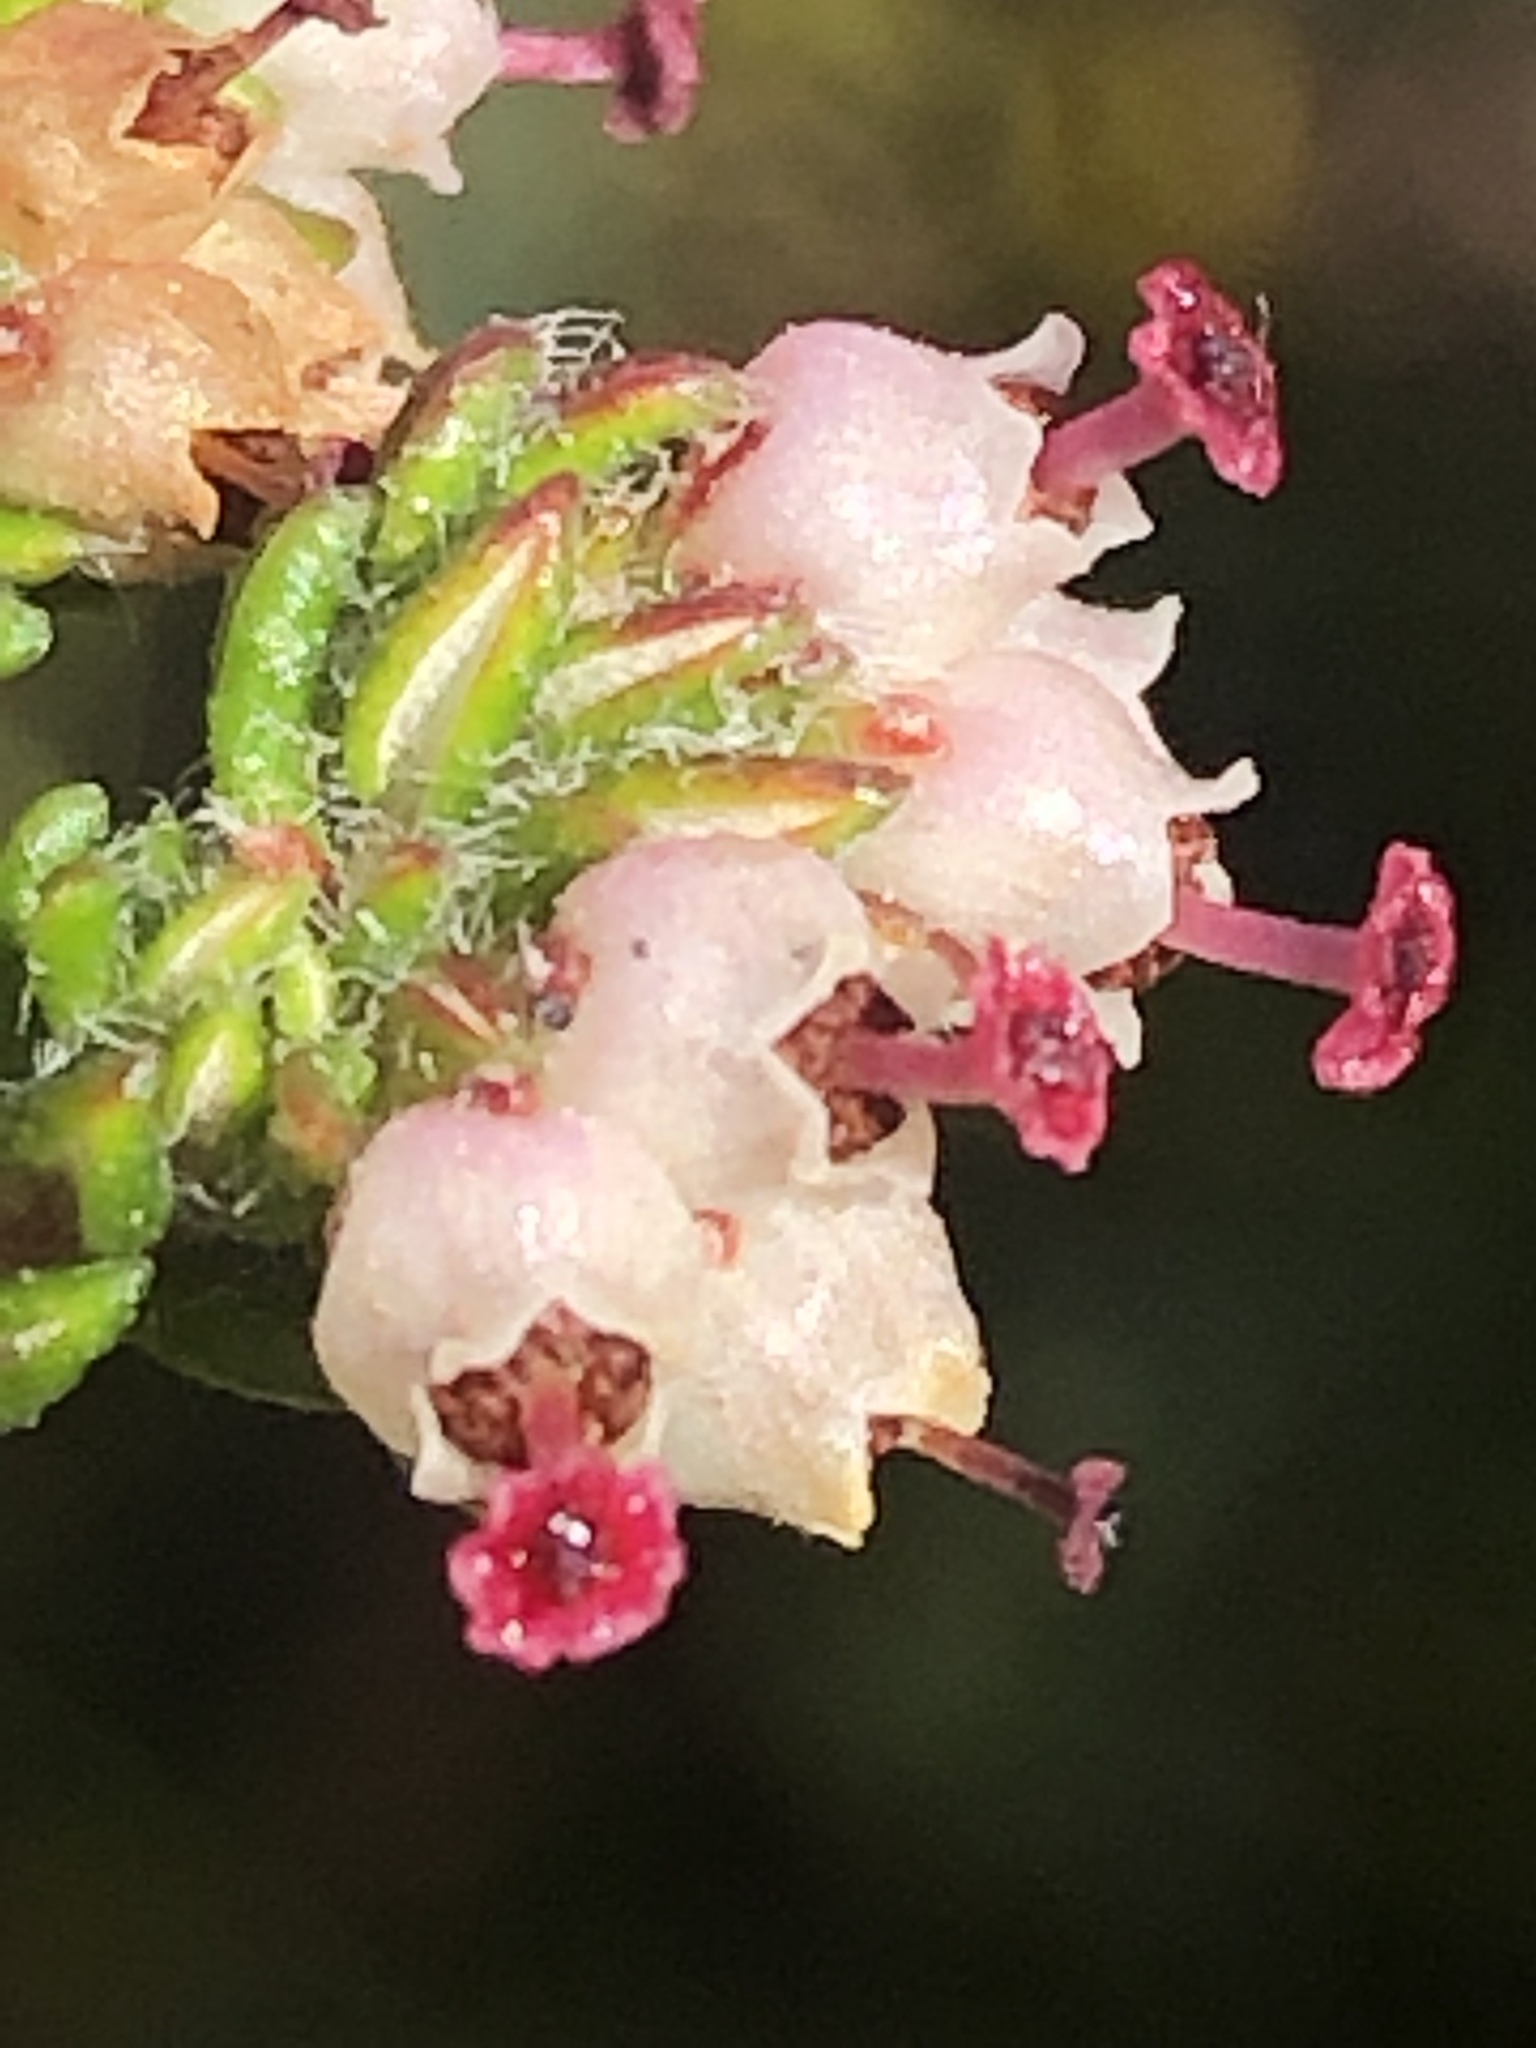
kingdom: Plantae
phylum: Tracheophyta
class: Magnoliopsida
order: Ericales
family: Ericaceae
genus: Erica
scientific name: Erica cordata
